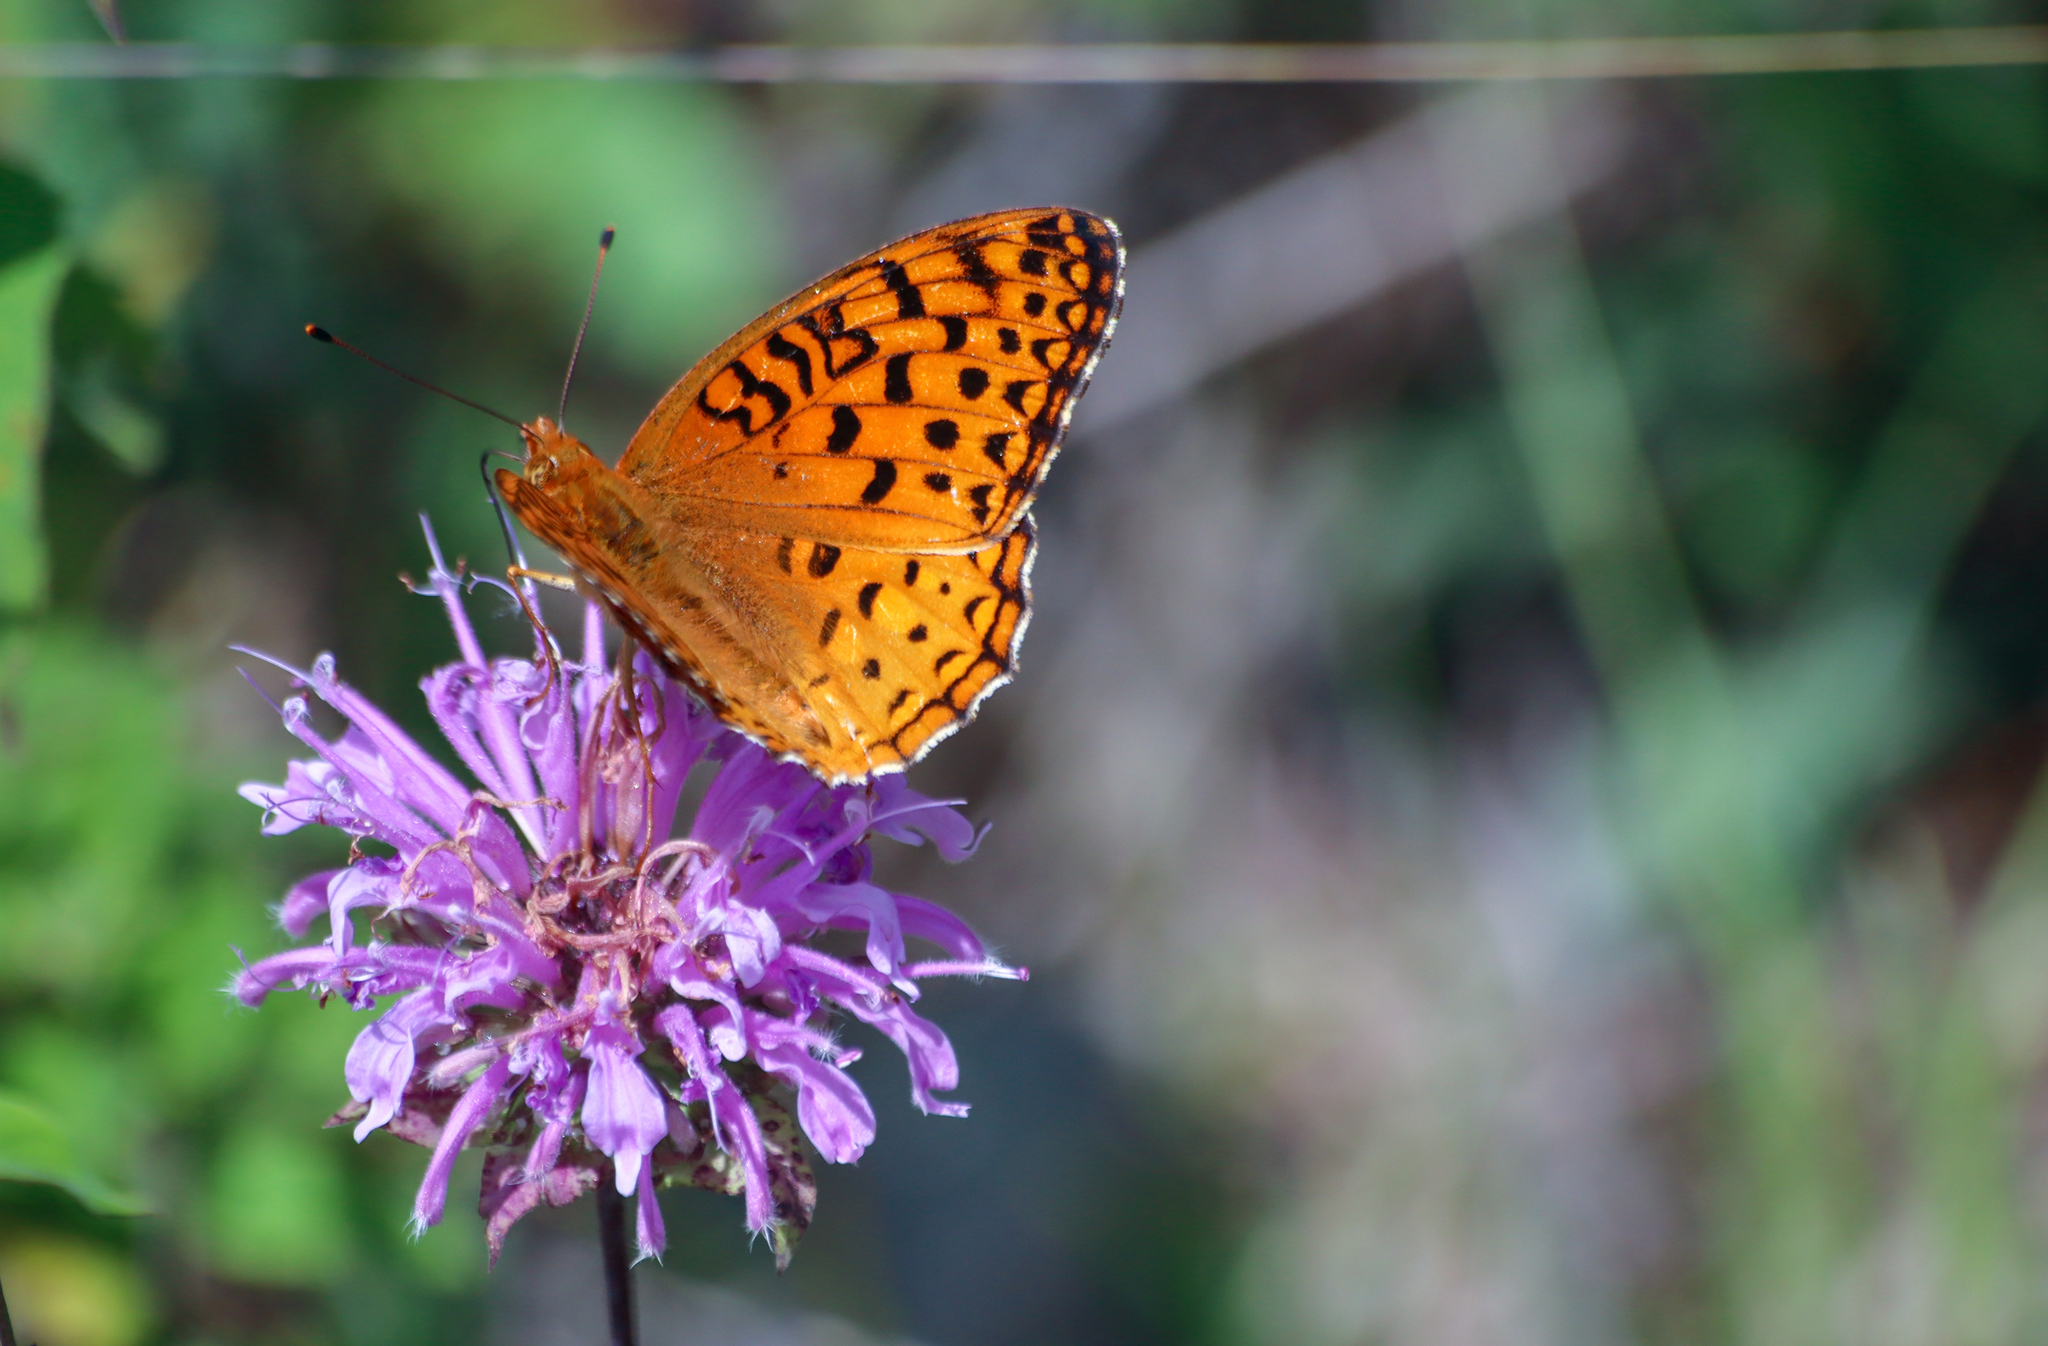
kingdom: Animalia
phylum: Arthropoda
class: Insecta
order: Lepidoptera
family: Nymphalidae
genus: Speyeria
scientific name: Speyeria aphrodite
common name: Aphrodite friitllary
